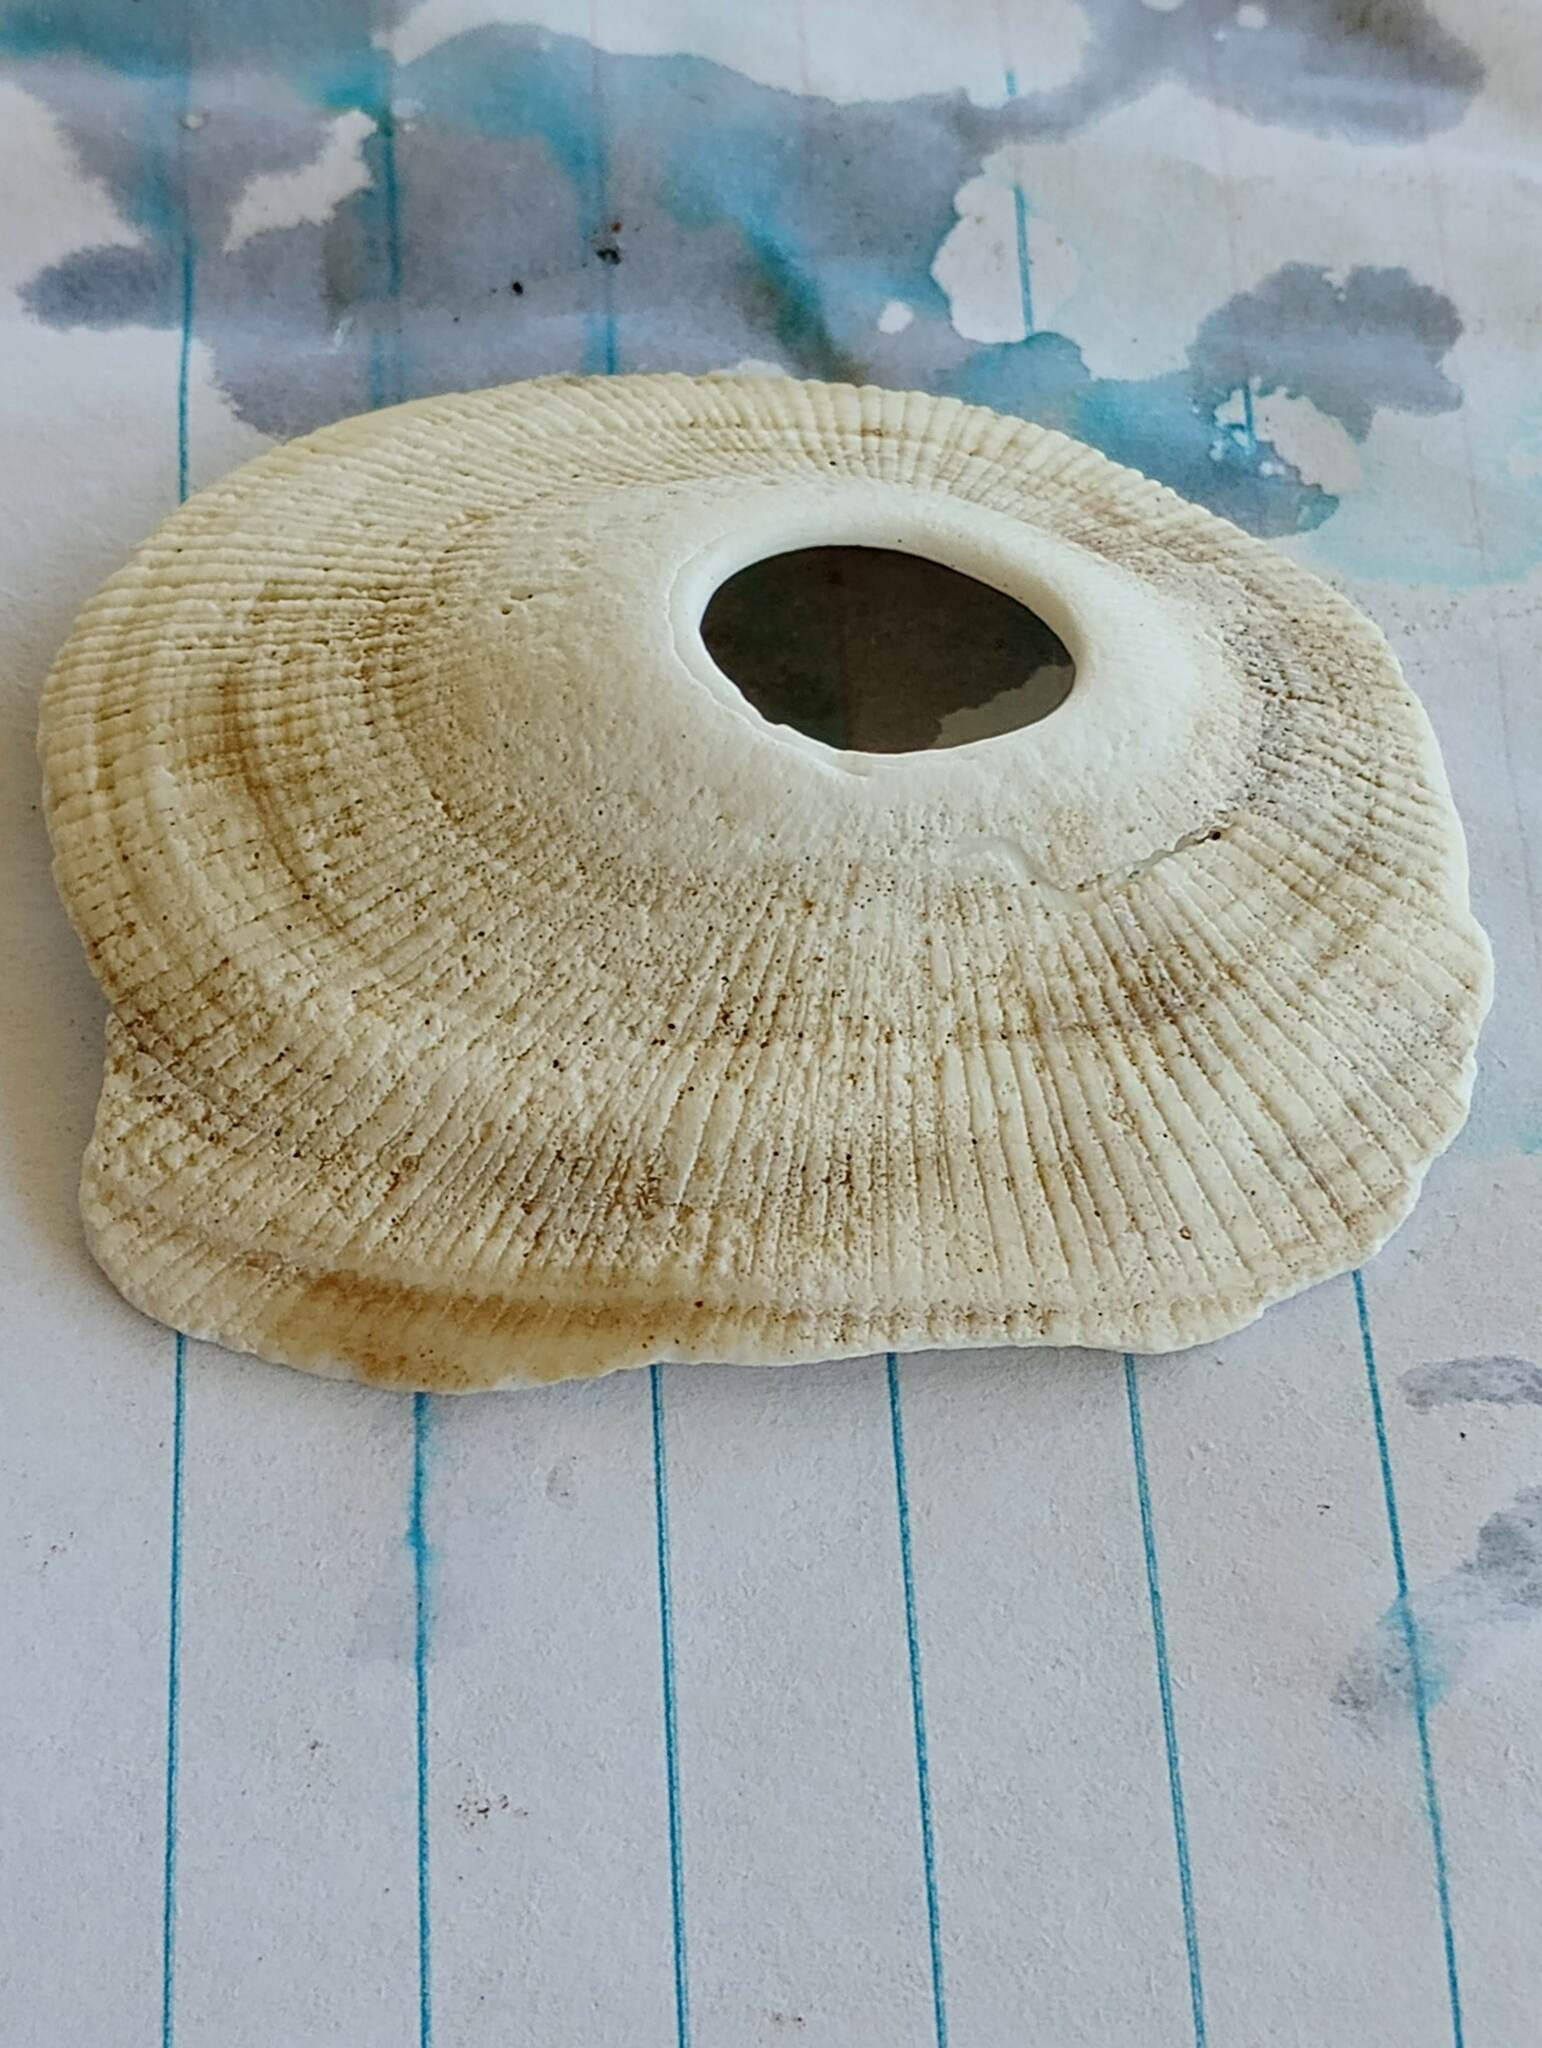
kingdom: Animalia
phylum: Mollusca
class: Gastropoda
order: Lepetellida
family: Fissurellidae
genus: Megathura
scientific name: Megathura crenulata
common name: Giant keyhole limpet
